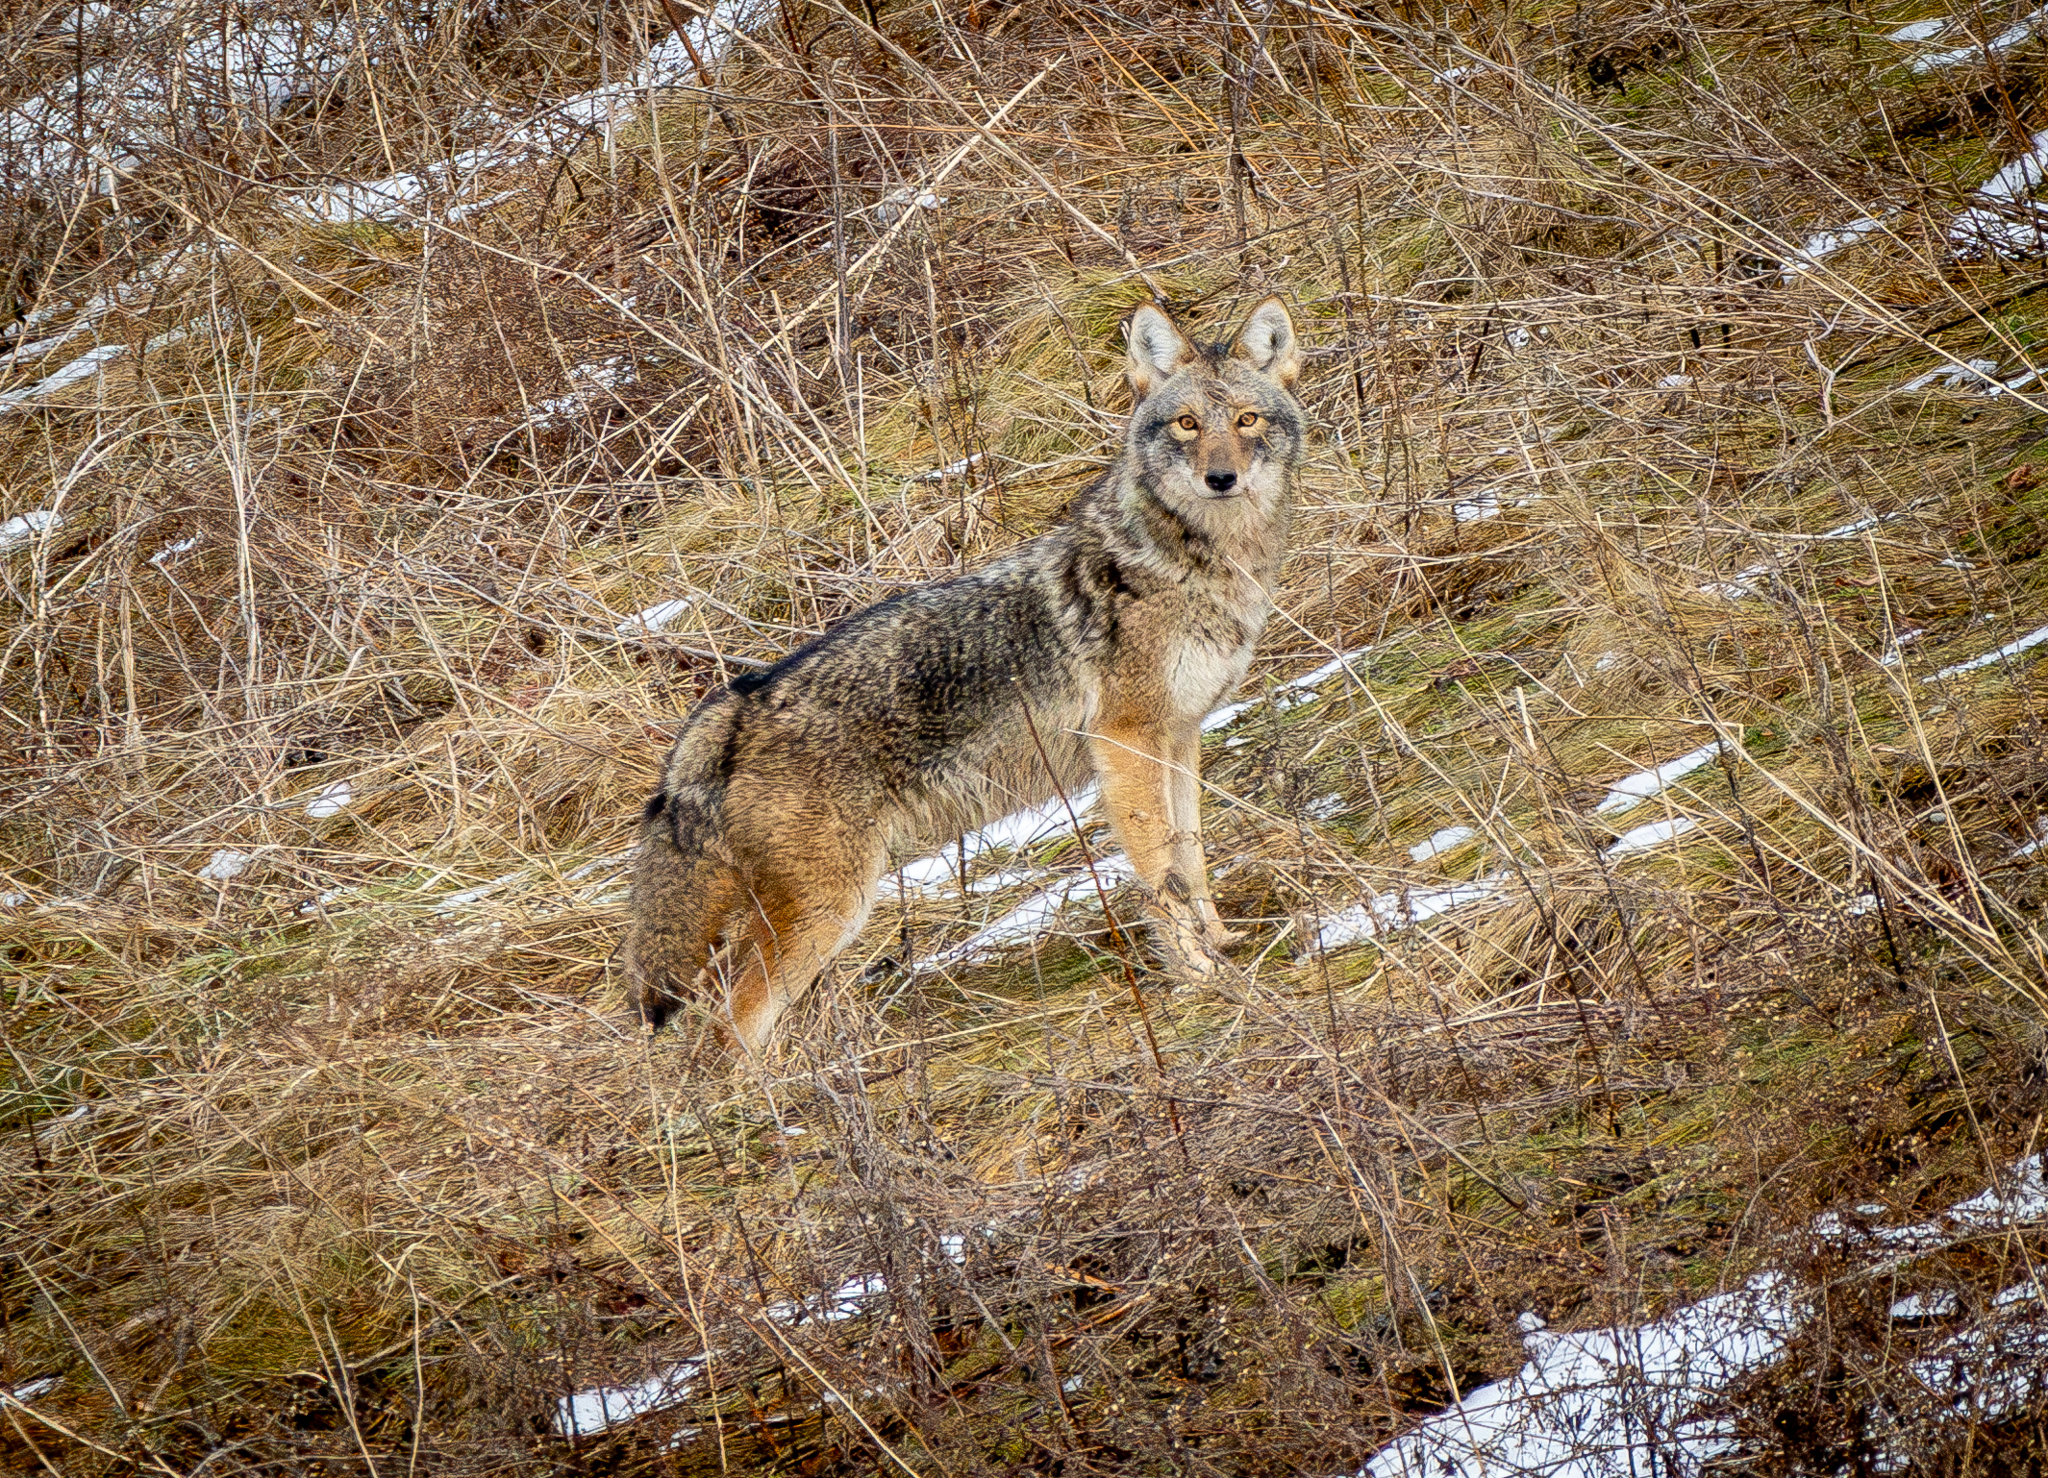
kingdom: Animalia
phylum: Chordata
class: Mammalia
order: Carnivora
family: Canidae
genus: Canis
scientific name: Canis latrans
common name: Coyote
